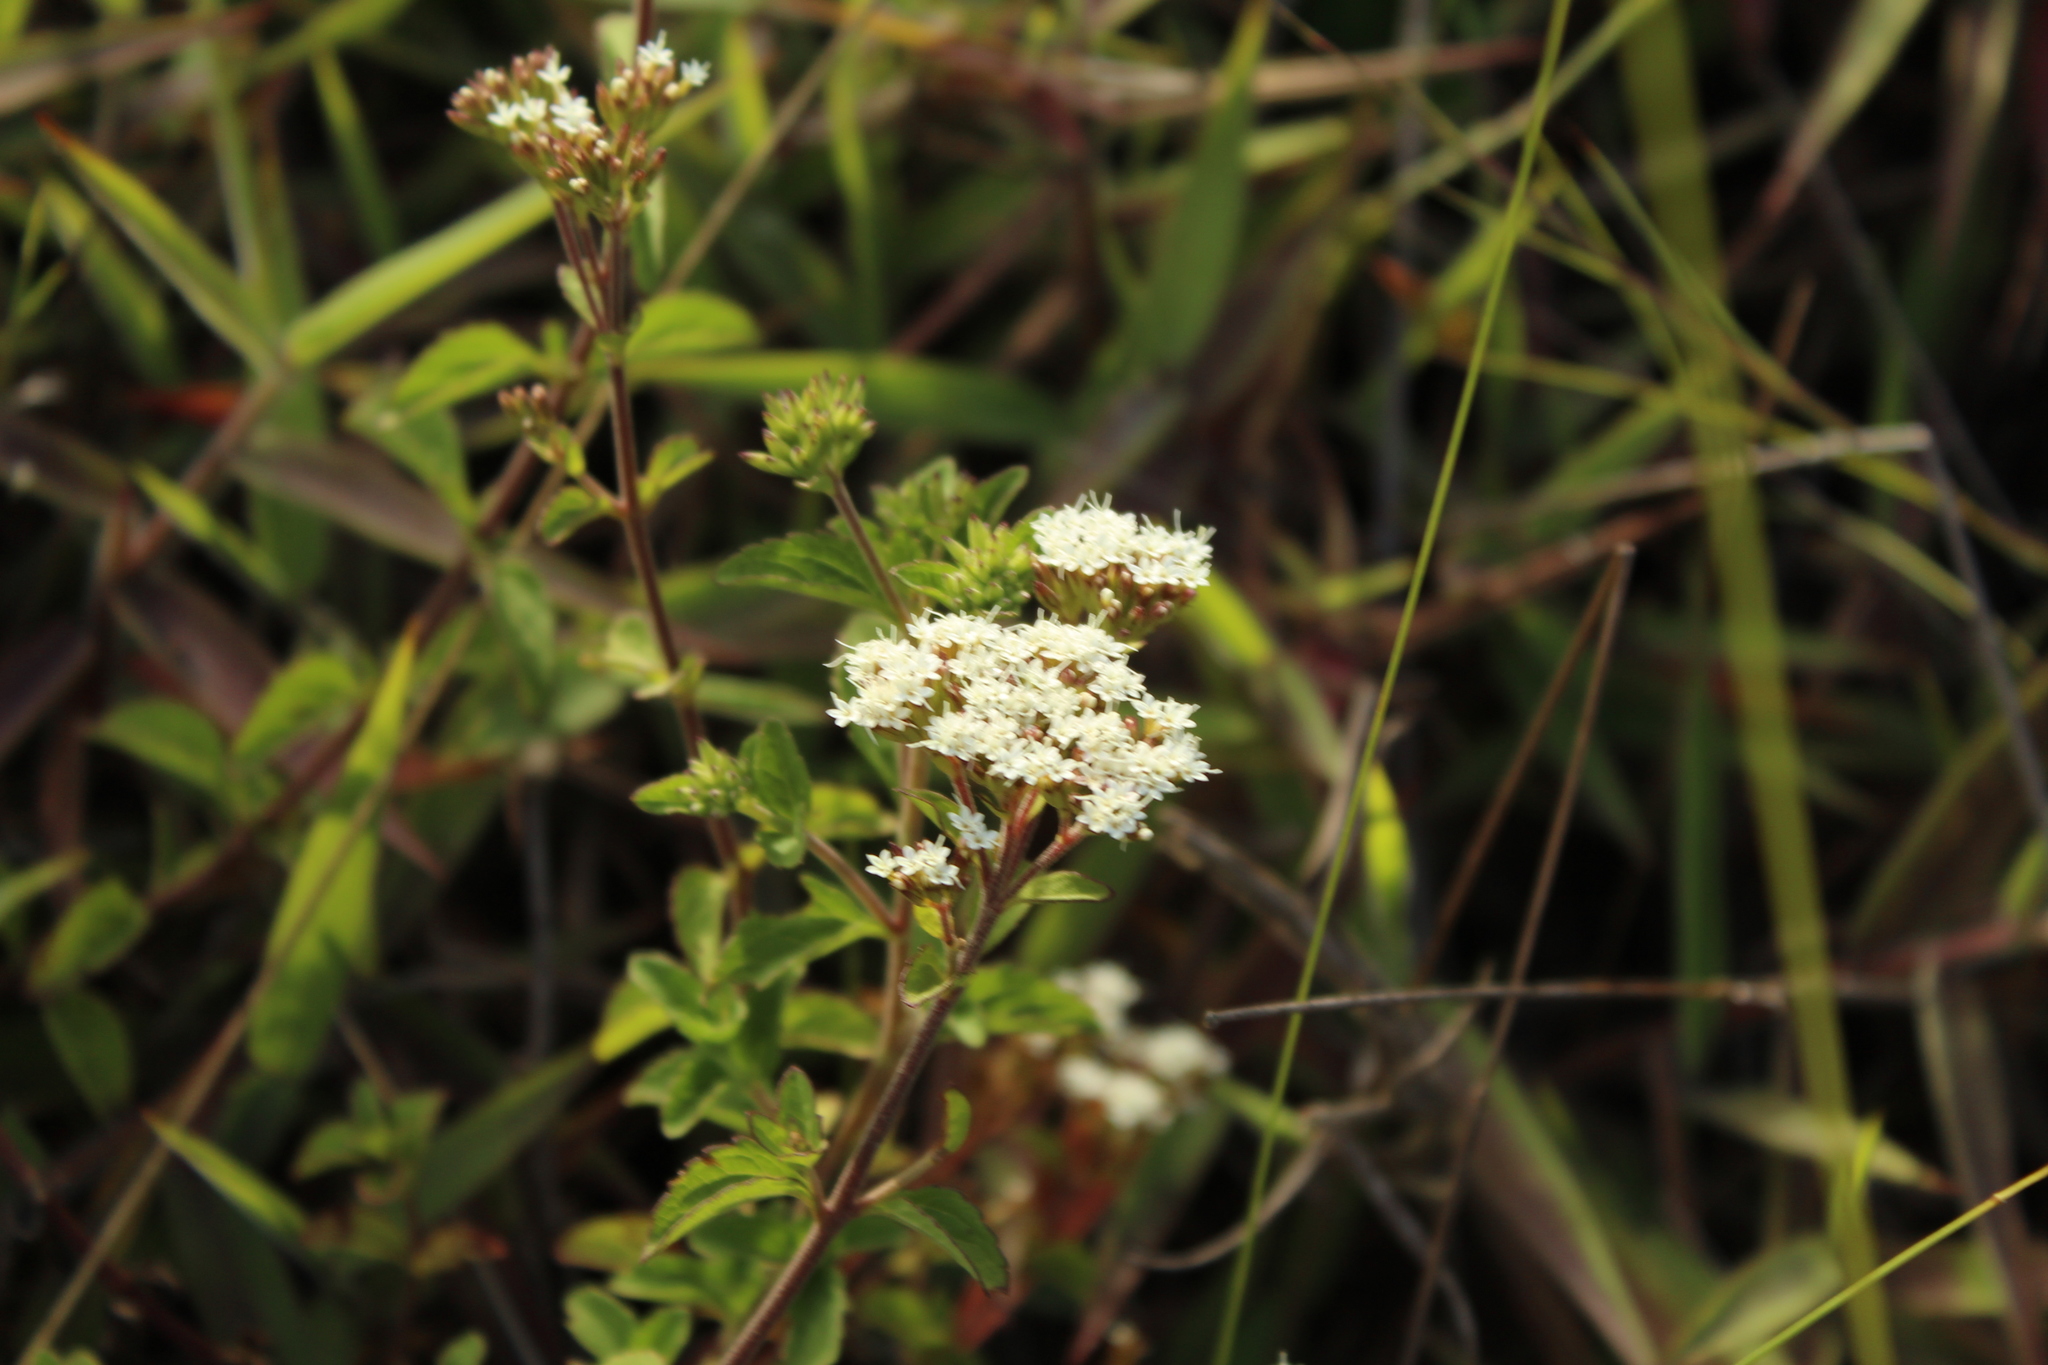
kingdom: Plantae
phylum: Tracheophyta
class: Magnoliopsida
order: Asterales
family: Asteraceae
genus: Stevia
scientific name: Stevia lucida
